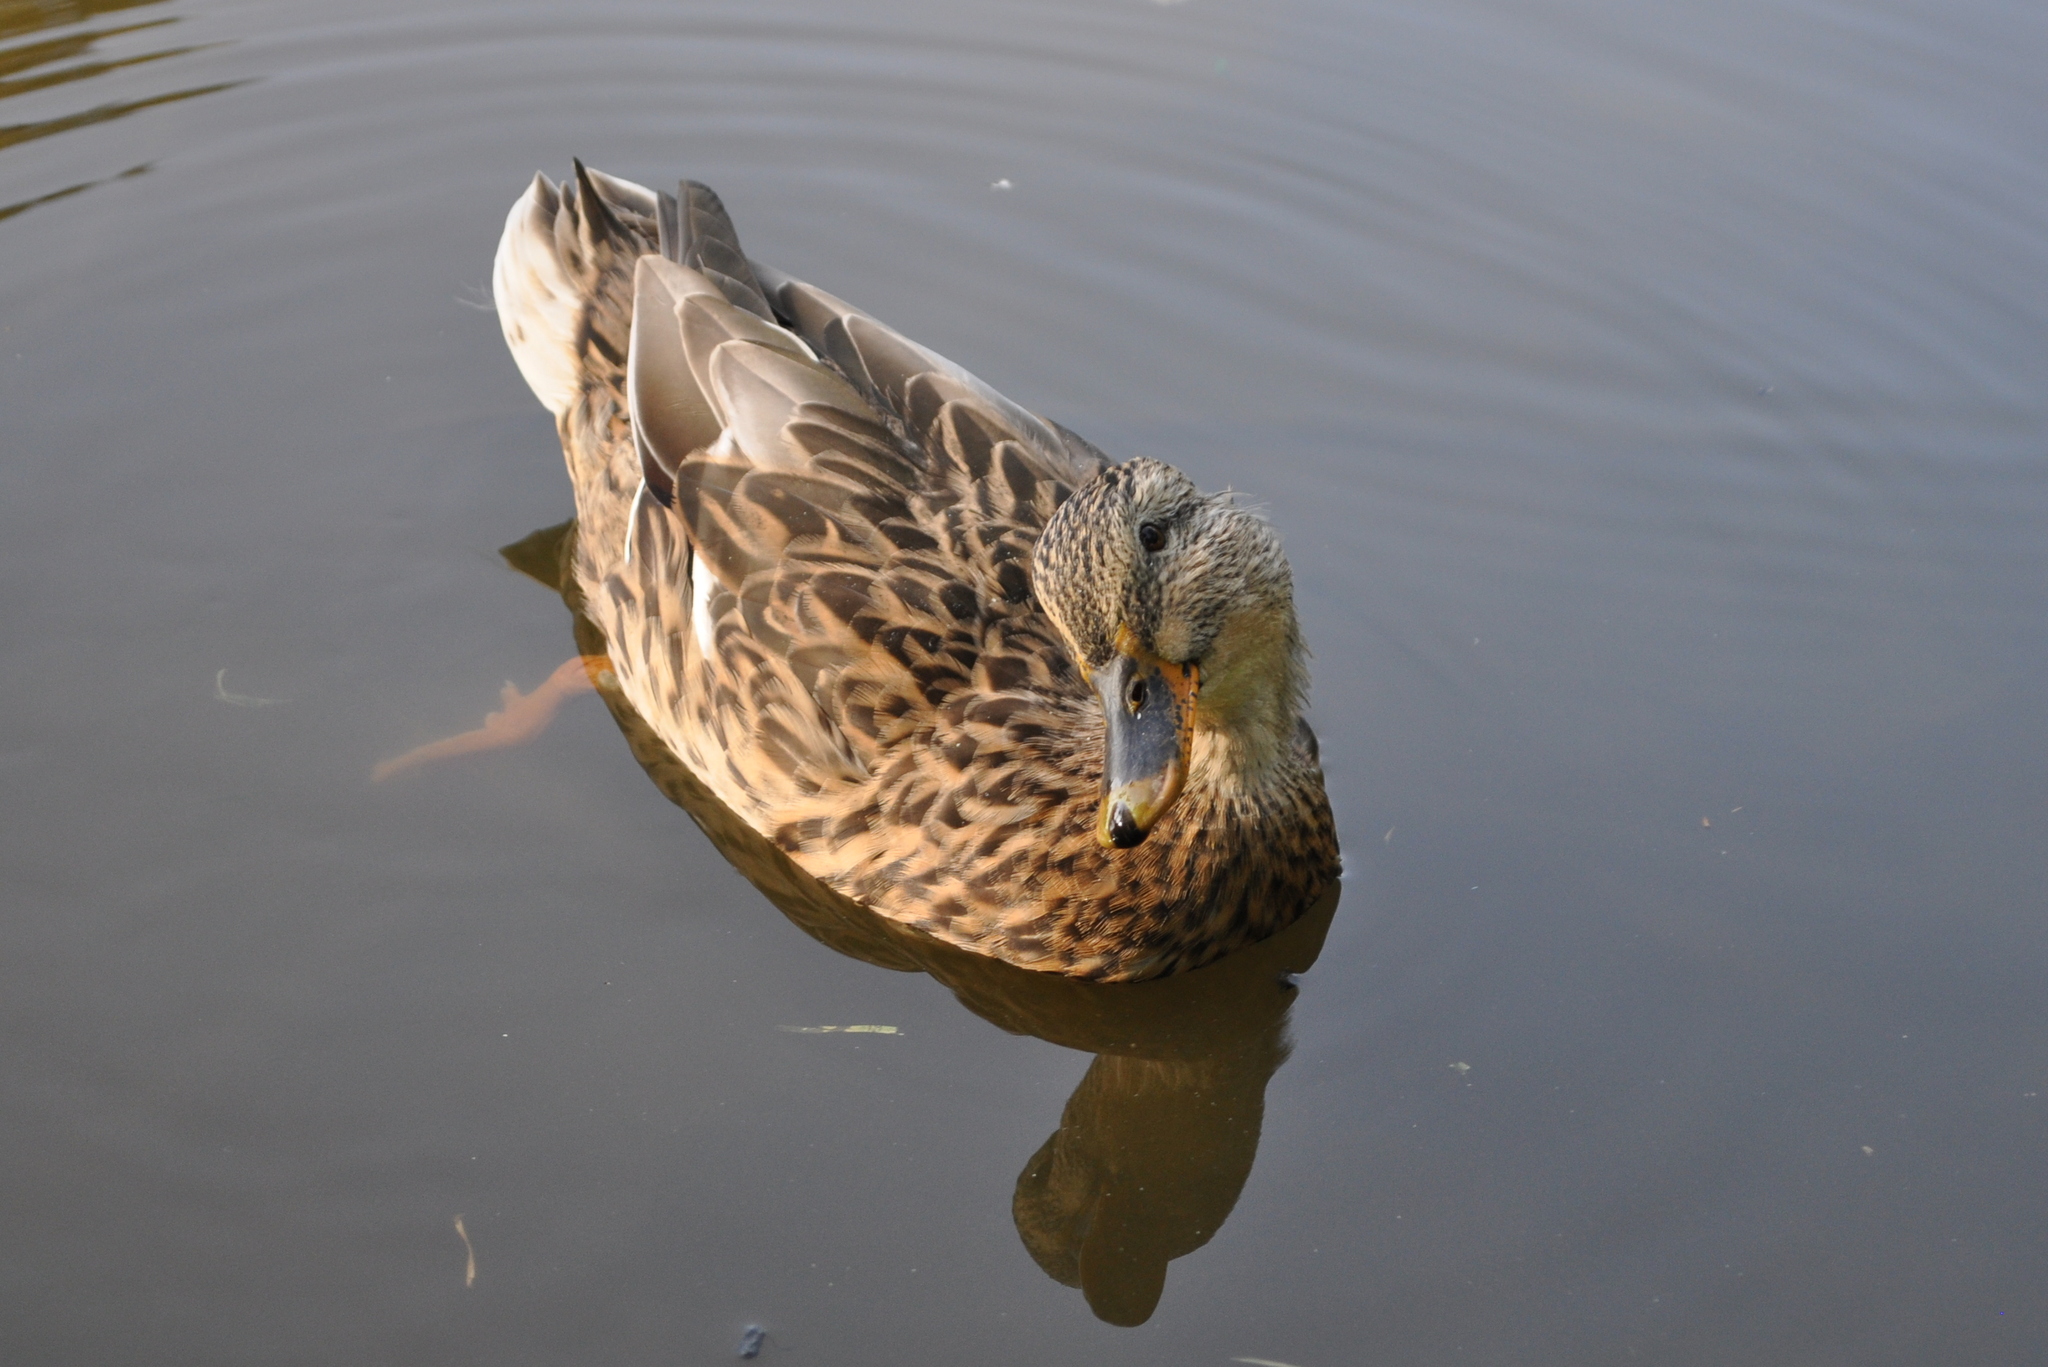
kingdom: Animalia
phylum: Chordata
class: Aves
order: Anseriformes
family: Anatidae
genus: Anas
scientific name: Anas platyrhynchos
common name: Mallard
